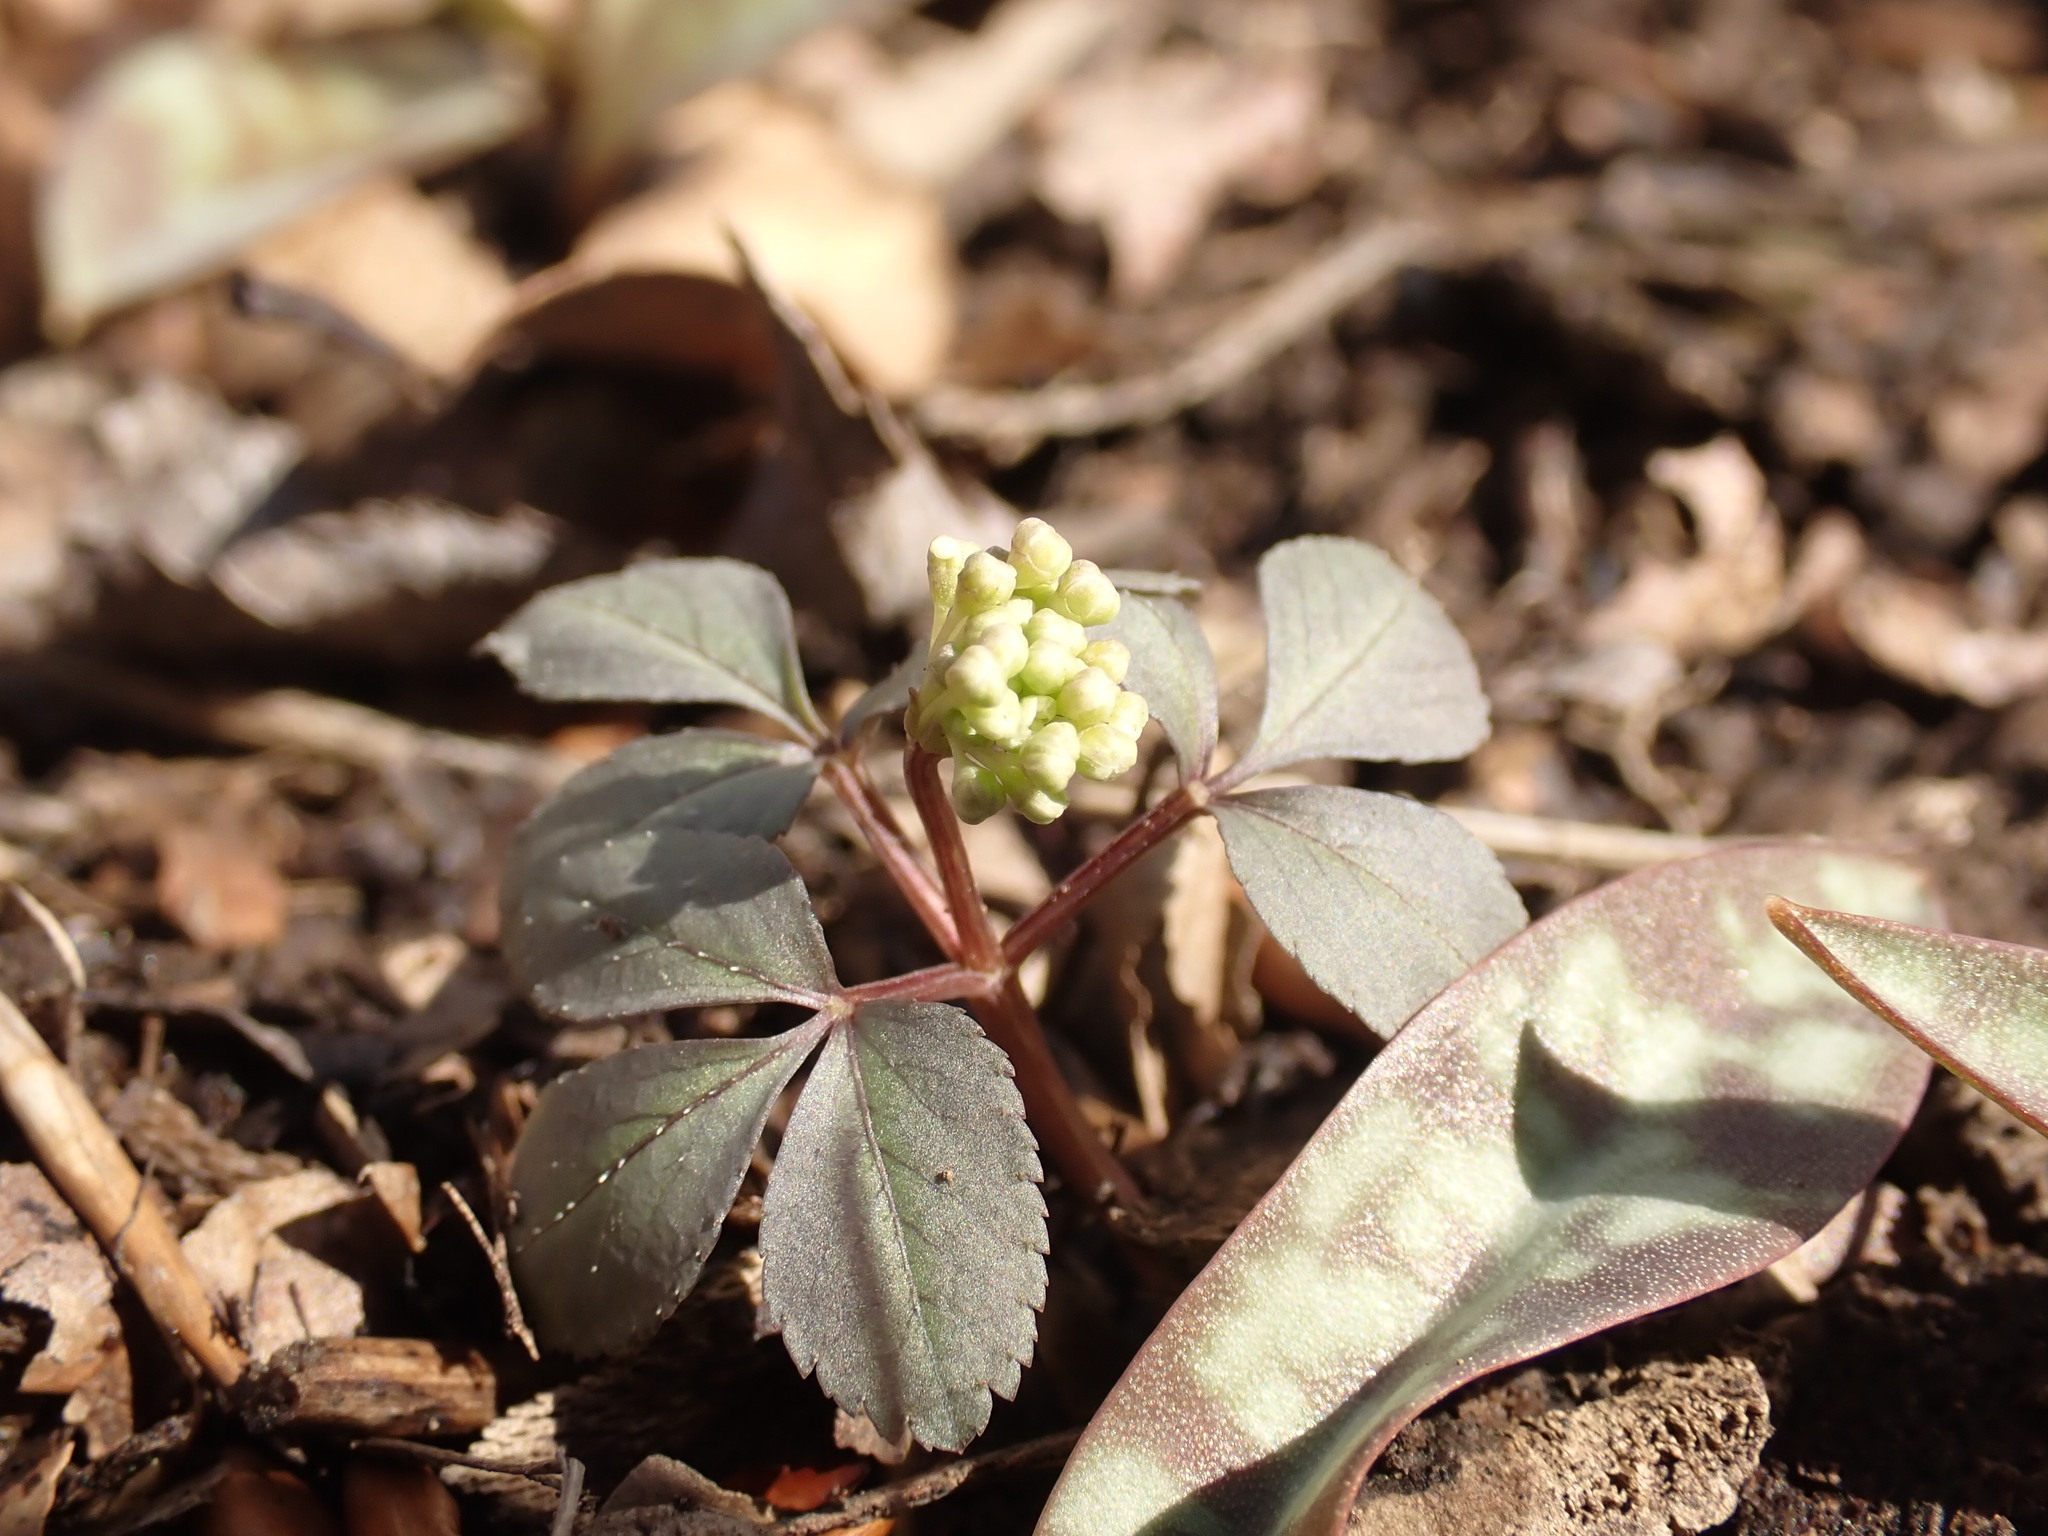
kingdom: Plantae
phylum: Tracheophyta
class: Magnoliopsida
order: Apiales
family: Araliaceae
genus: Panax
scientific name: Panax trifolius
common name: Dwarf ginseng
